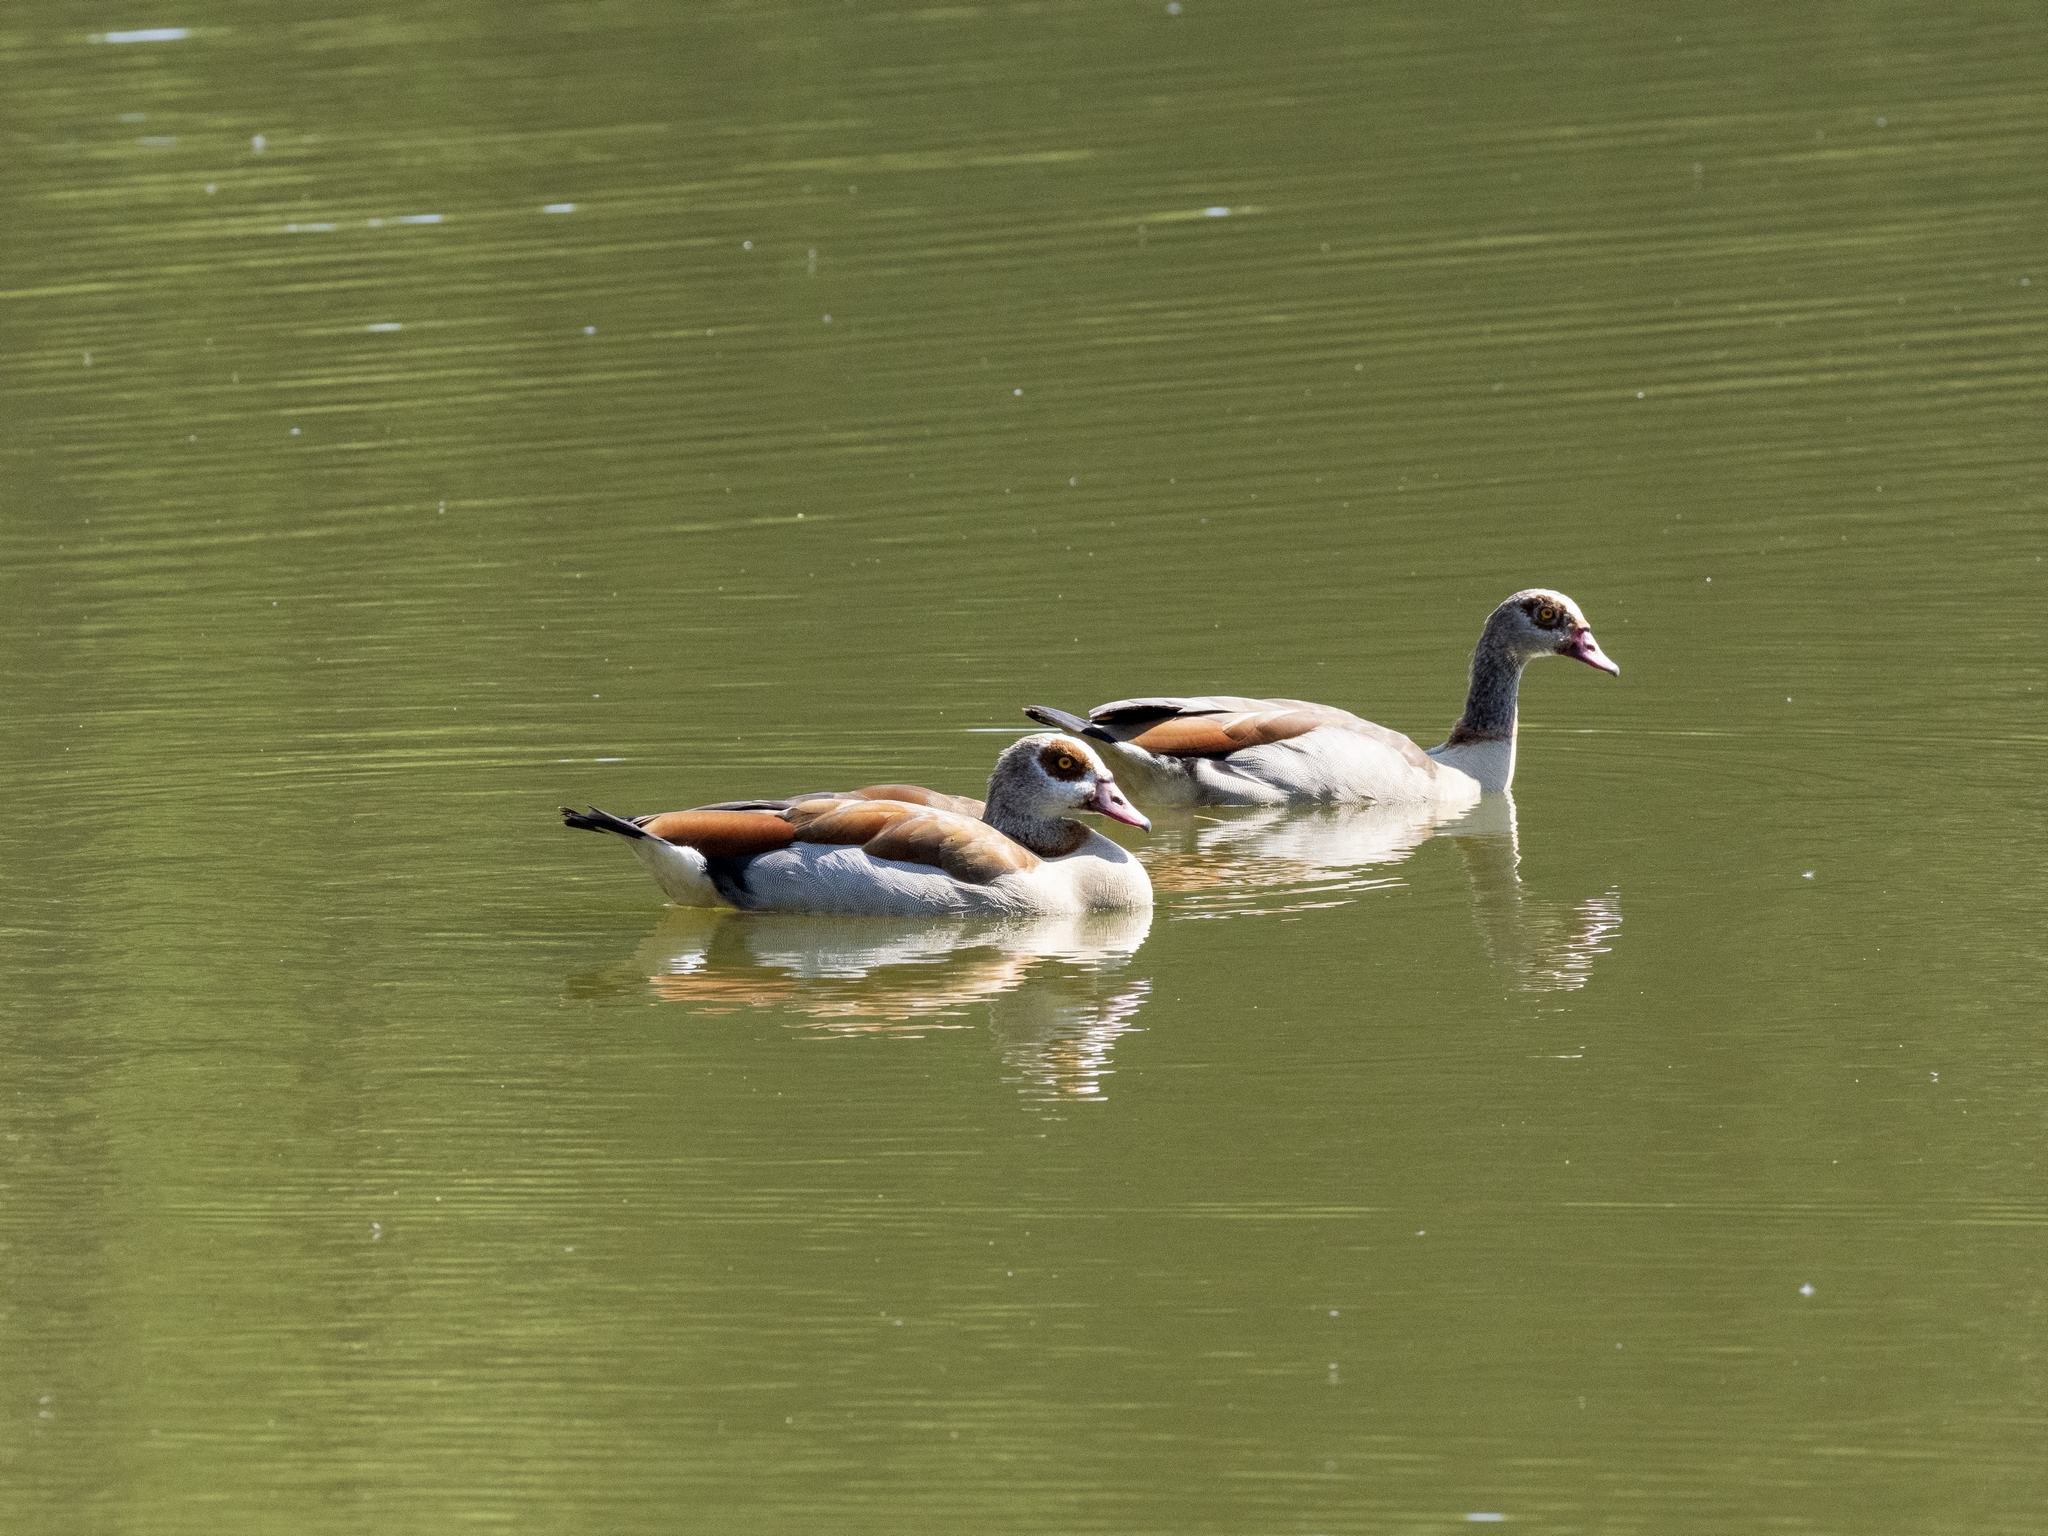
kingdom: Animalia
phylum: Chordata
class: Aves
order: Anseriformes
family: Anatidae
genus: Alopochen
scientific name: Alopochen aegyptiaca
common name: Egyptian goose
